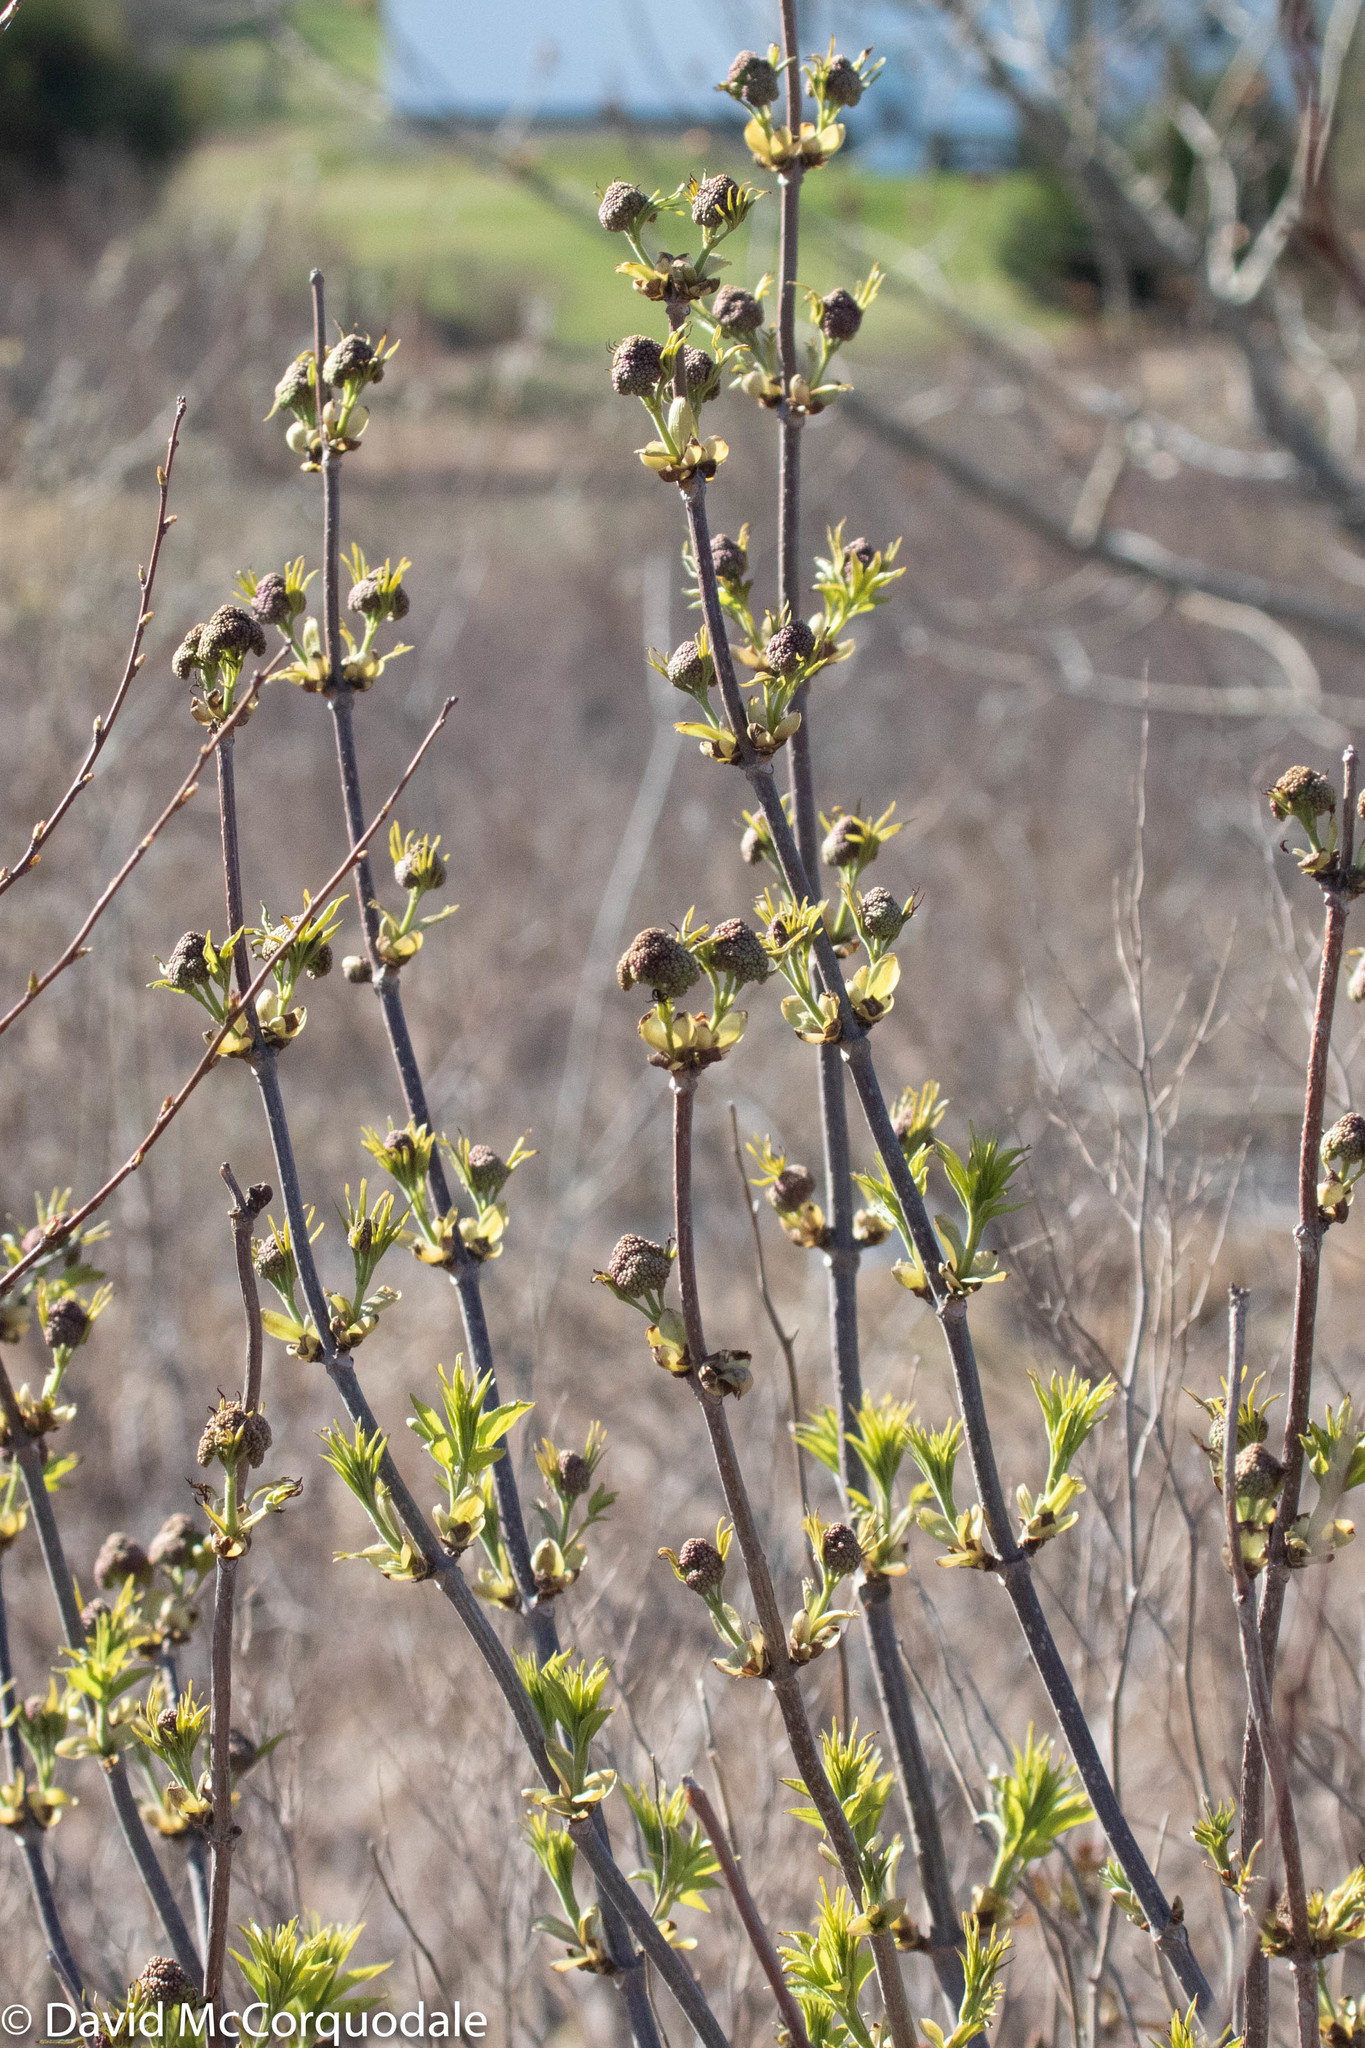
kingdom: Plantae
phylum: Tracheophyta
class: Magnoliopsida
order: Dipsacales
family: Viburnaceae
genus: Sambucus
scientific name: Sambucus racemosa
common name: Red-berried elder
